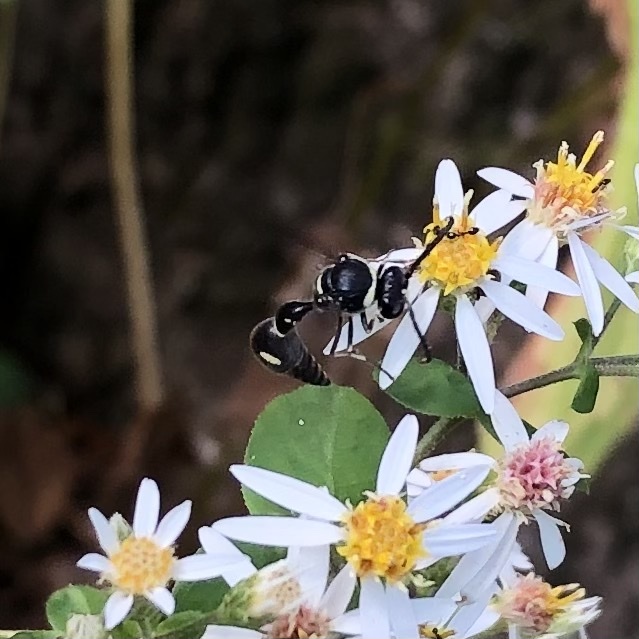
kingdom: Animalia
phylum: Arthropoda
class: Insecta
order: Hymenoptera
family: Vespidae
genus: Eumenes
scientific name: Eumenes fraternus
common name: Fraternal potter wasp
